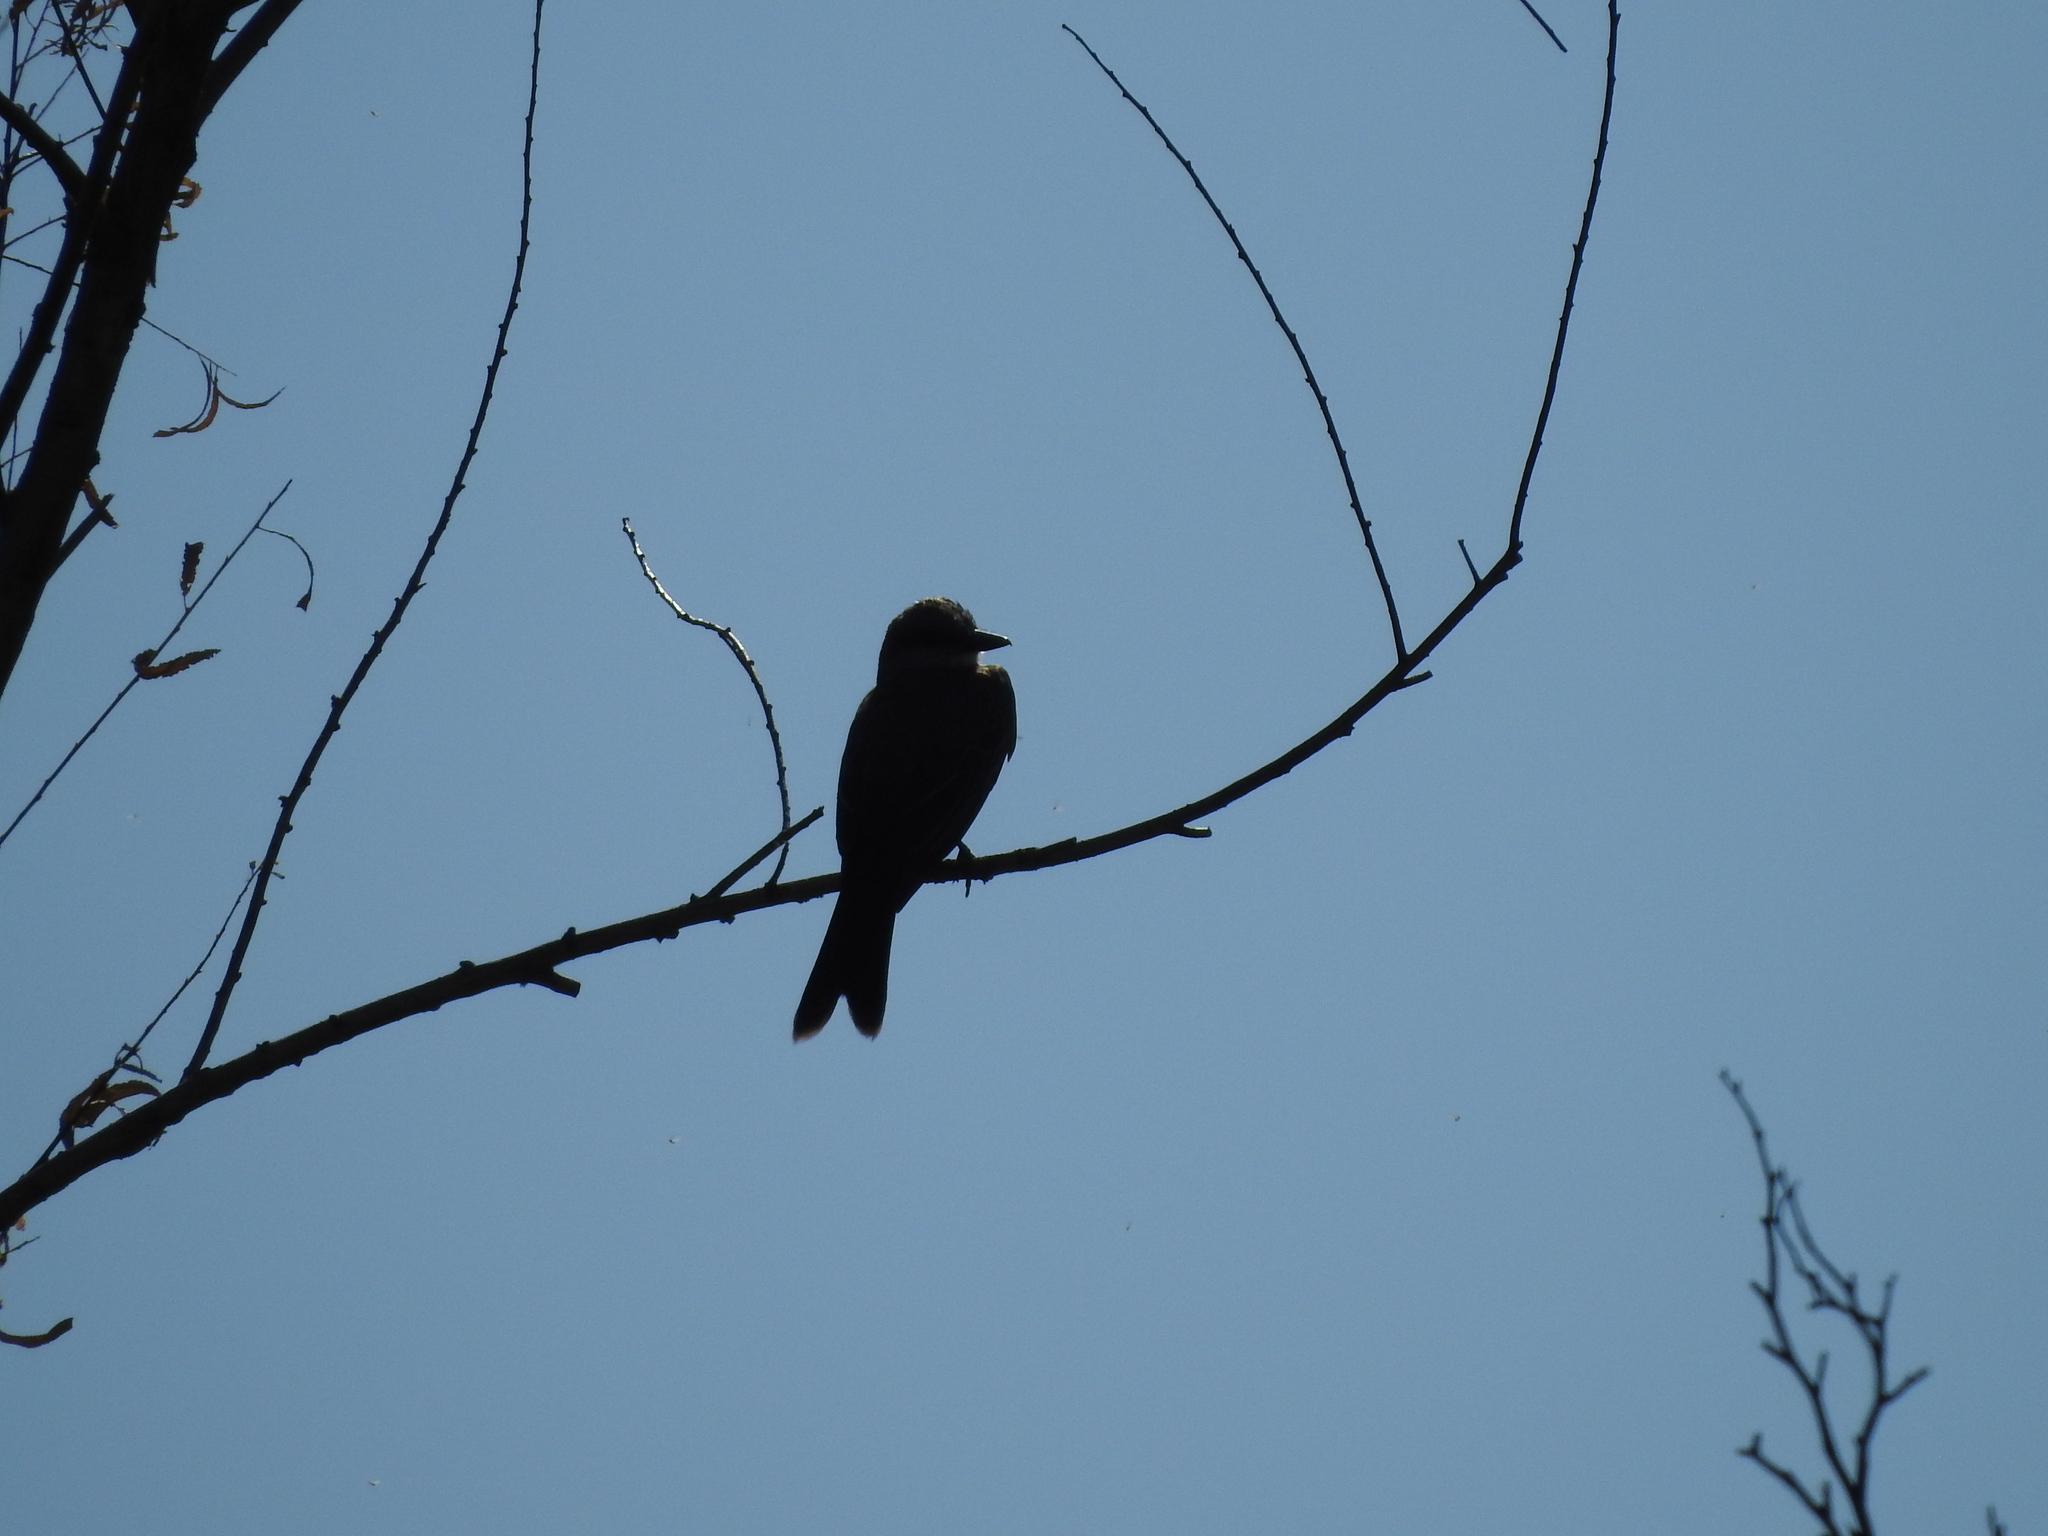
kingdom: Animalia
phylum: Chordata
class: Aves
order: Passeriformes
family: Tyrannidae
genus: Tyrannus
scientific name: Tyrannus melancholicus
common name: Tropical kingbird
